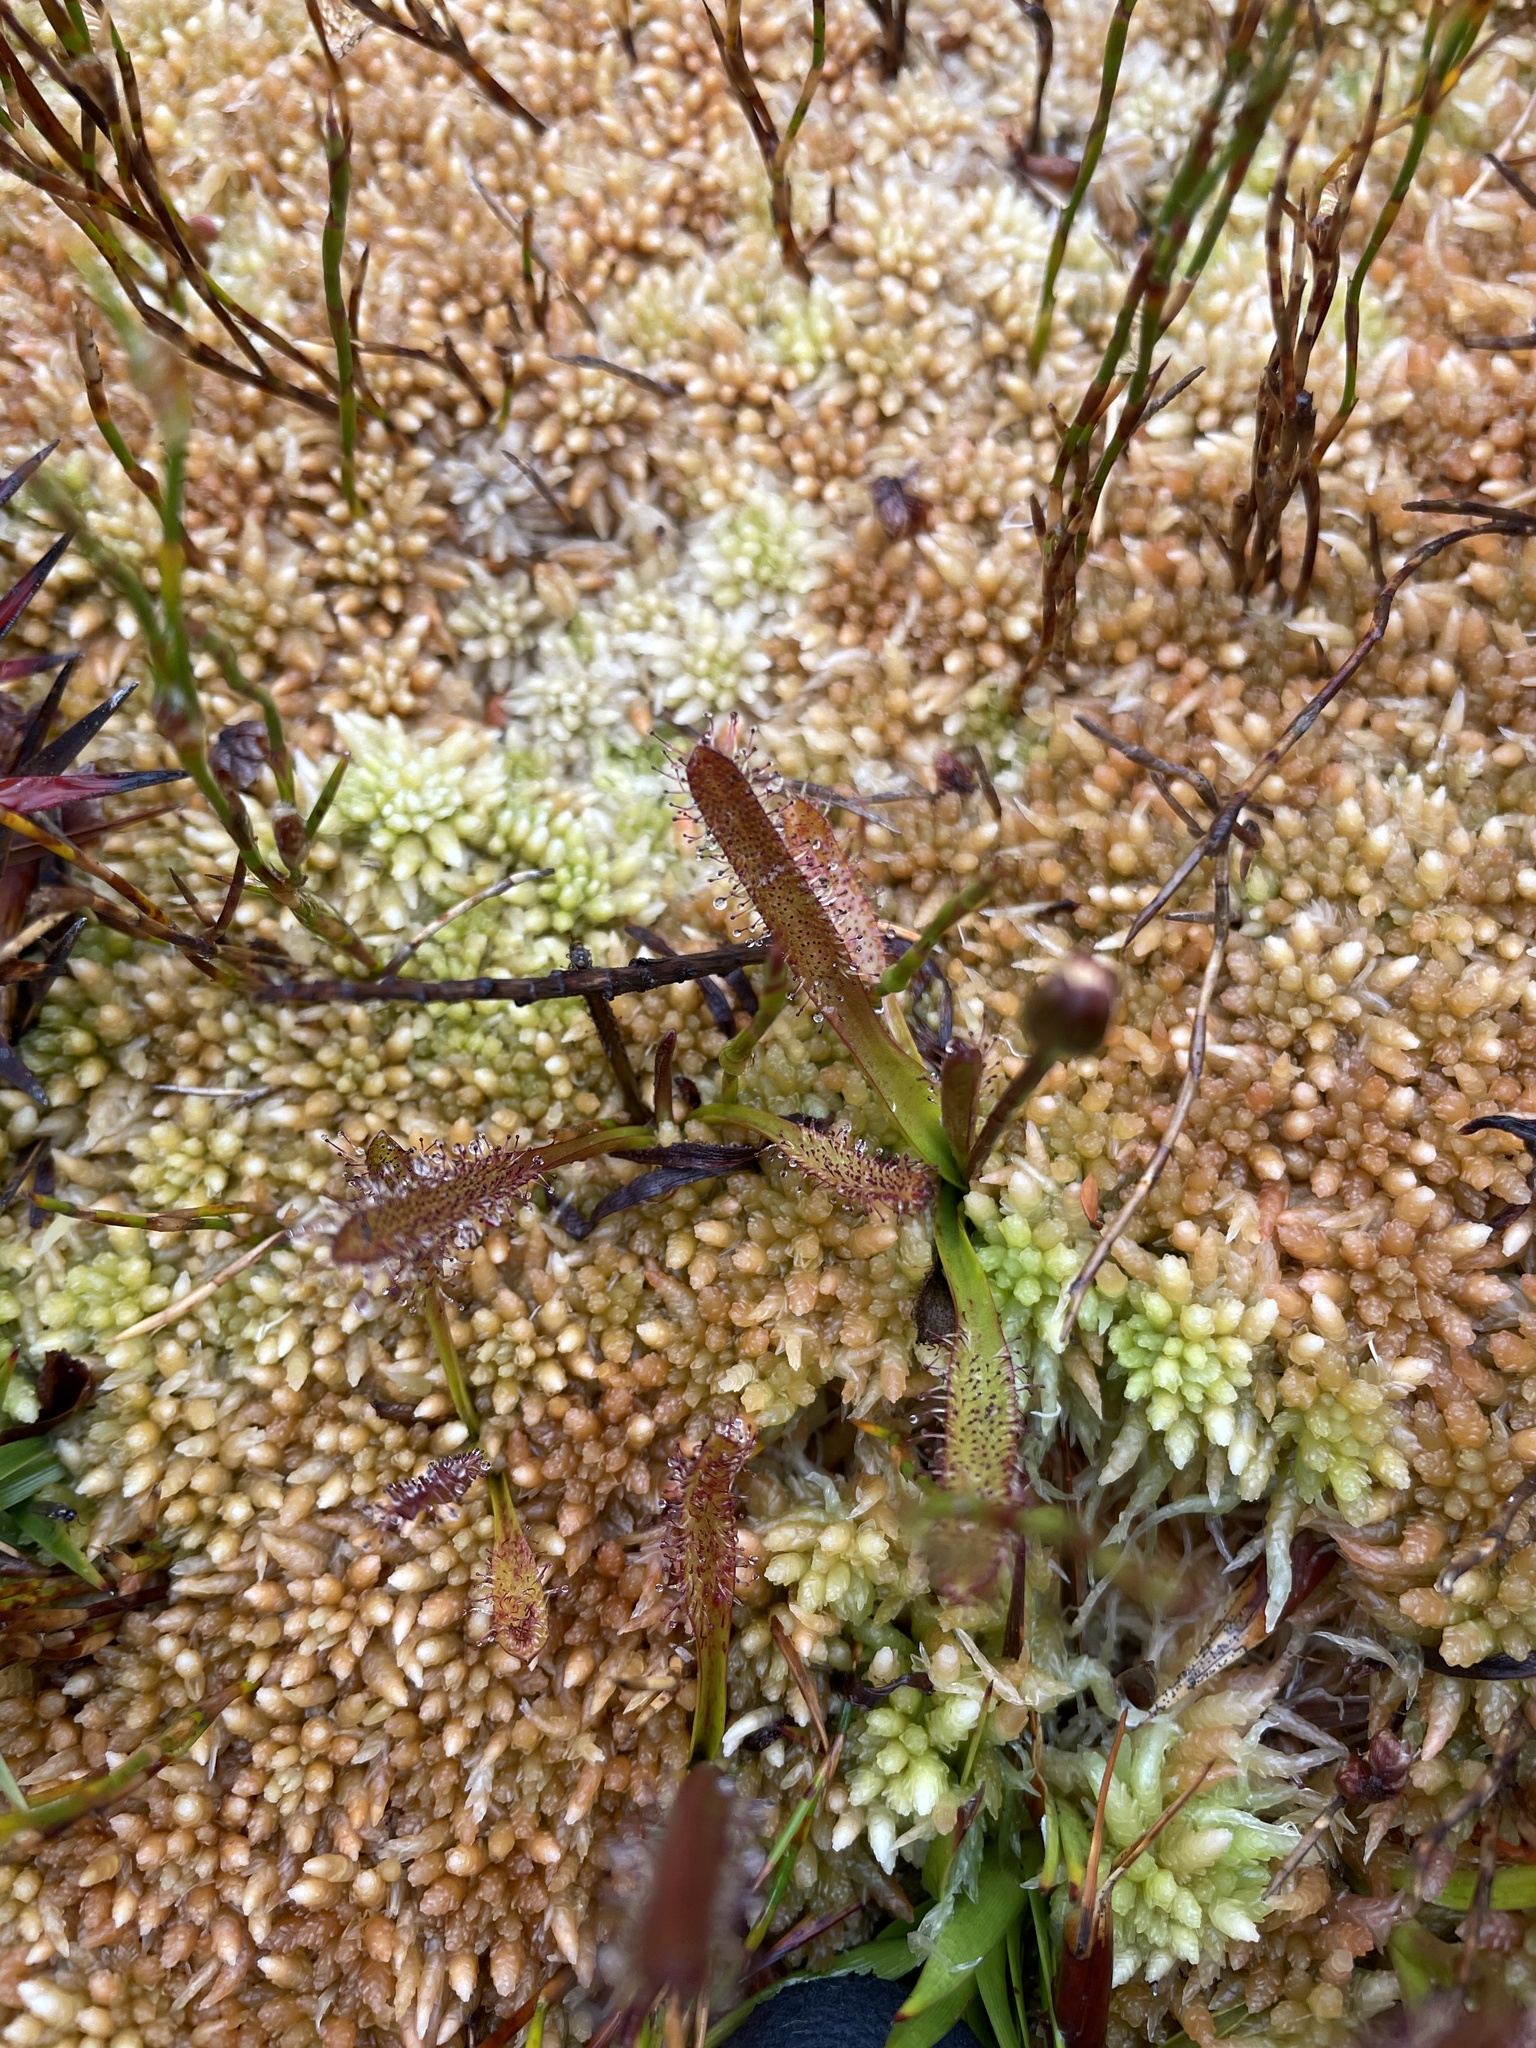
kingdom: Plantae
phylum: Tracheophyta
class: Magnoliopsida
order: Caryophyllales
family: Droseraceae
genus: Drosera
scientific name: Drosera arcturi
